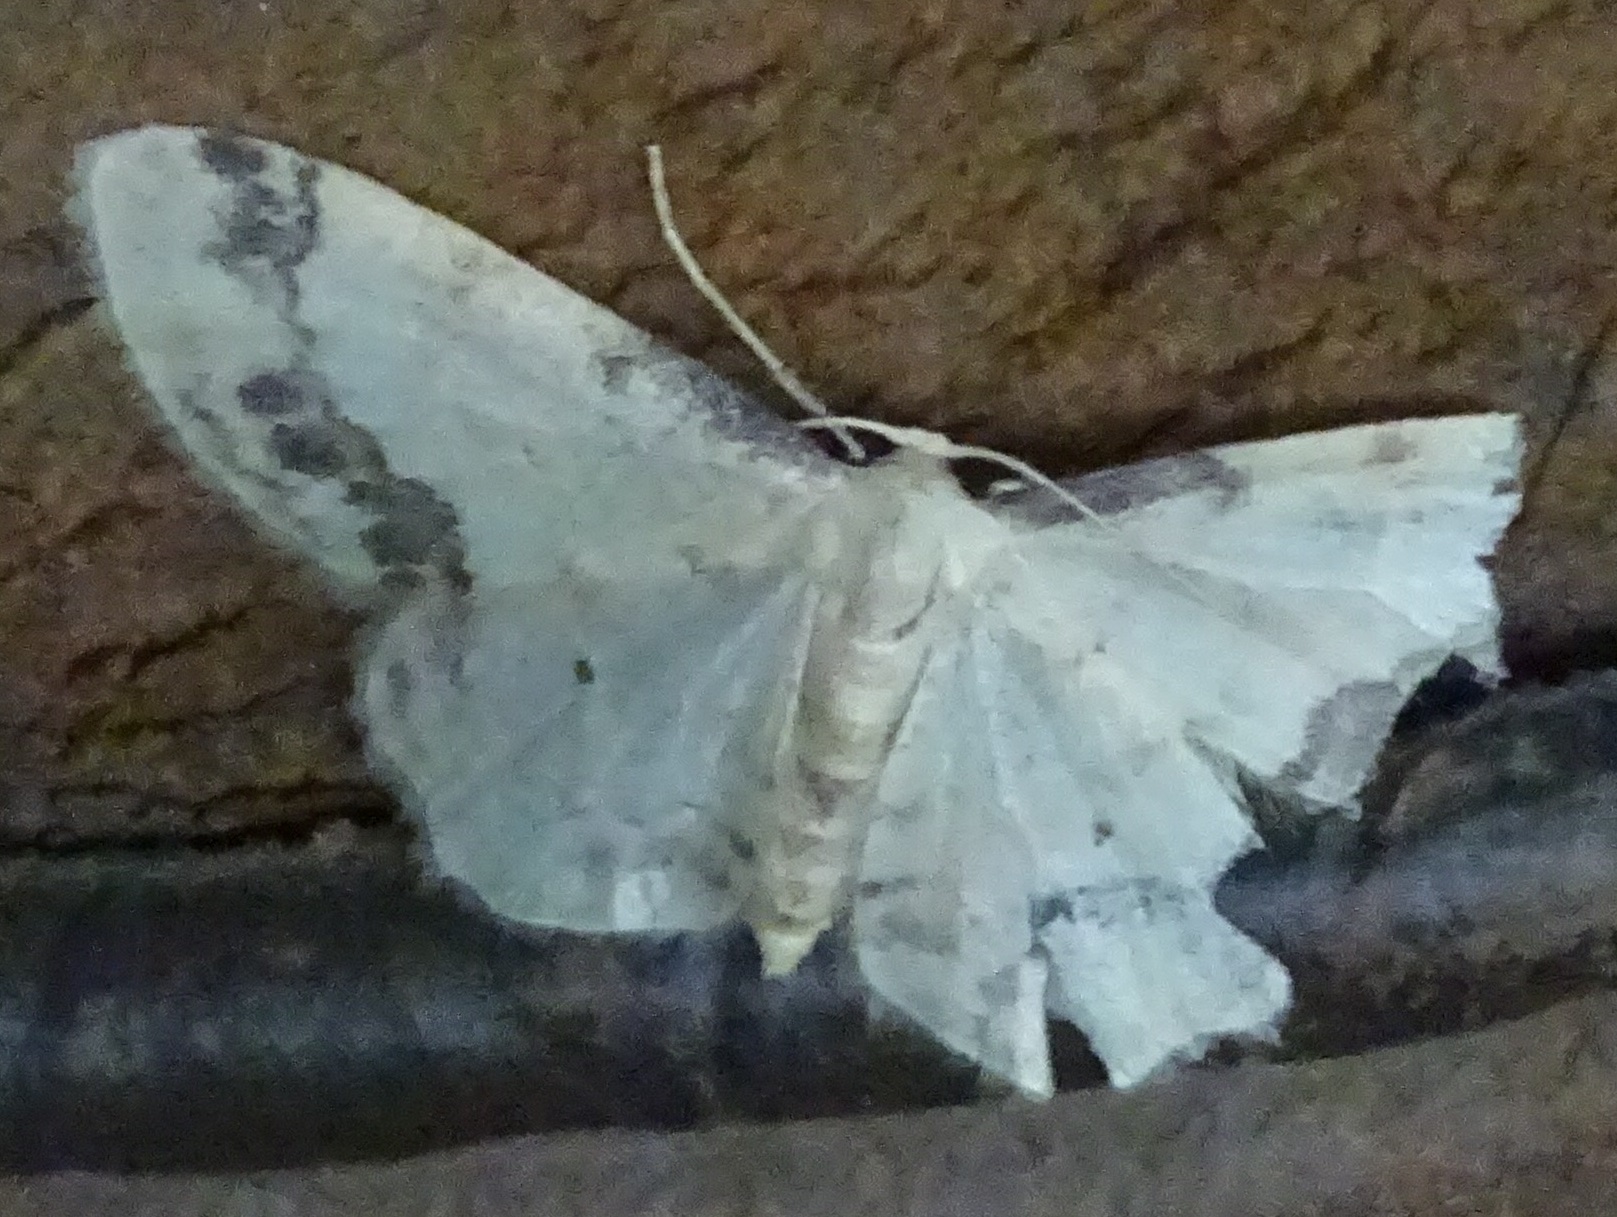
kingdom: Animalia
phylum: Arthropoda
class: Insecta
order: Lepidoptera
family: Geometridae
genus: Idaea
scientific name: Idaea trigeminata
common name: Treble brown spot
